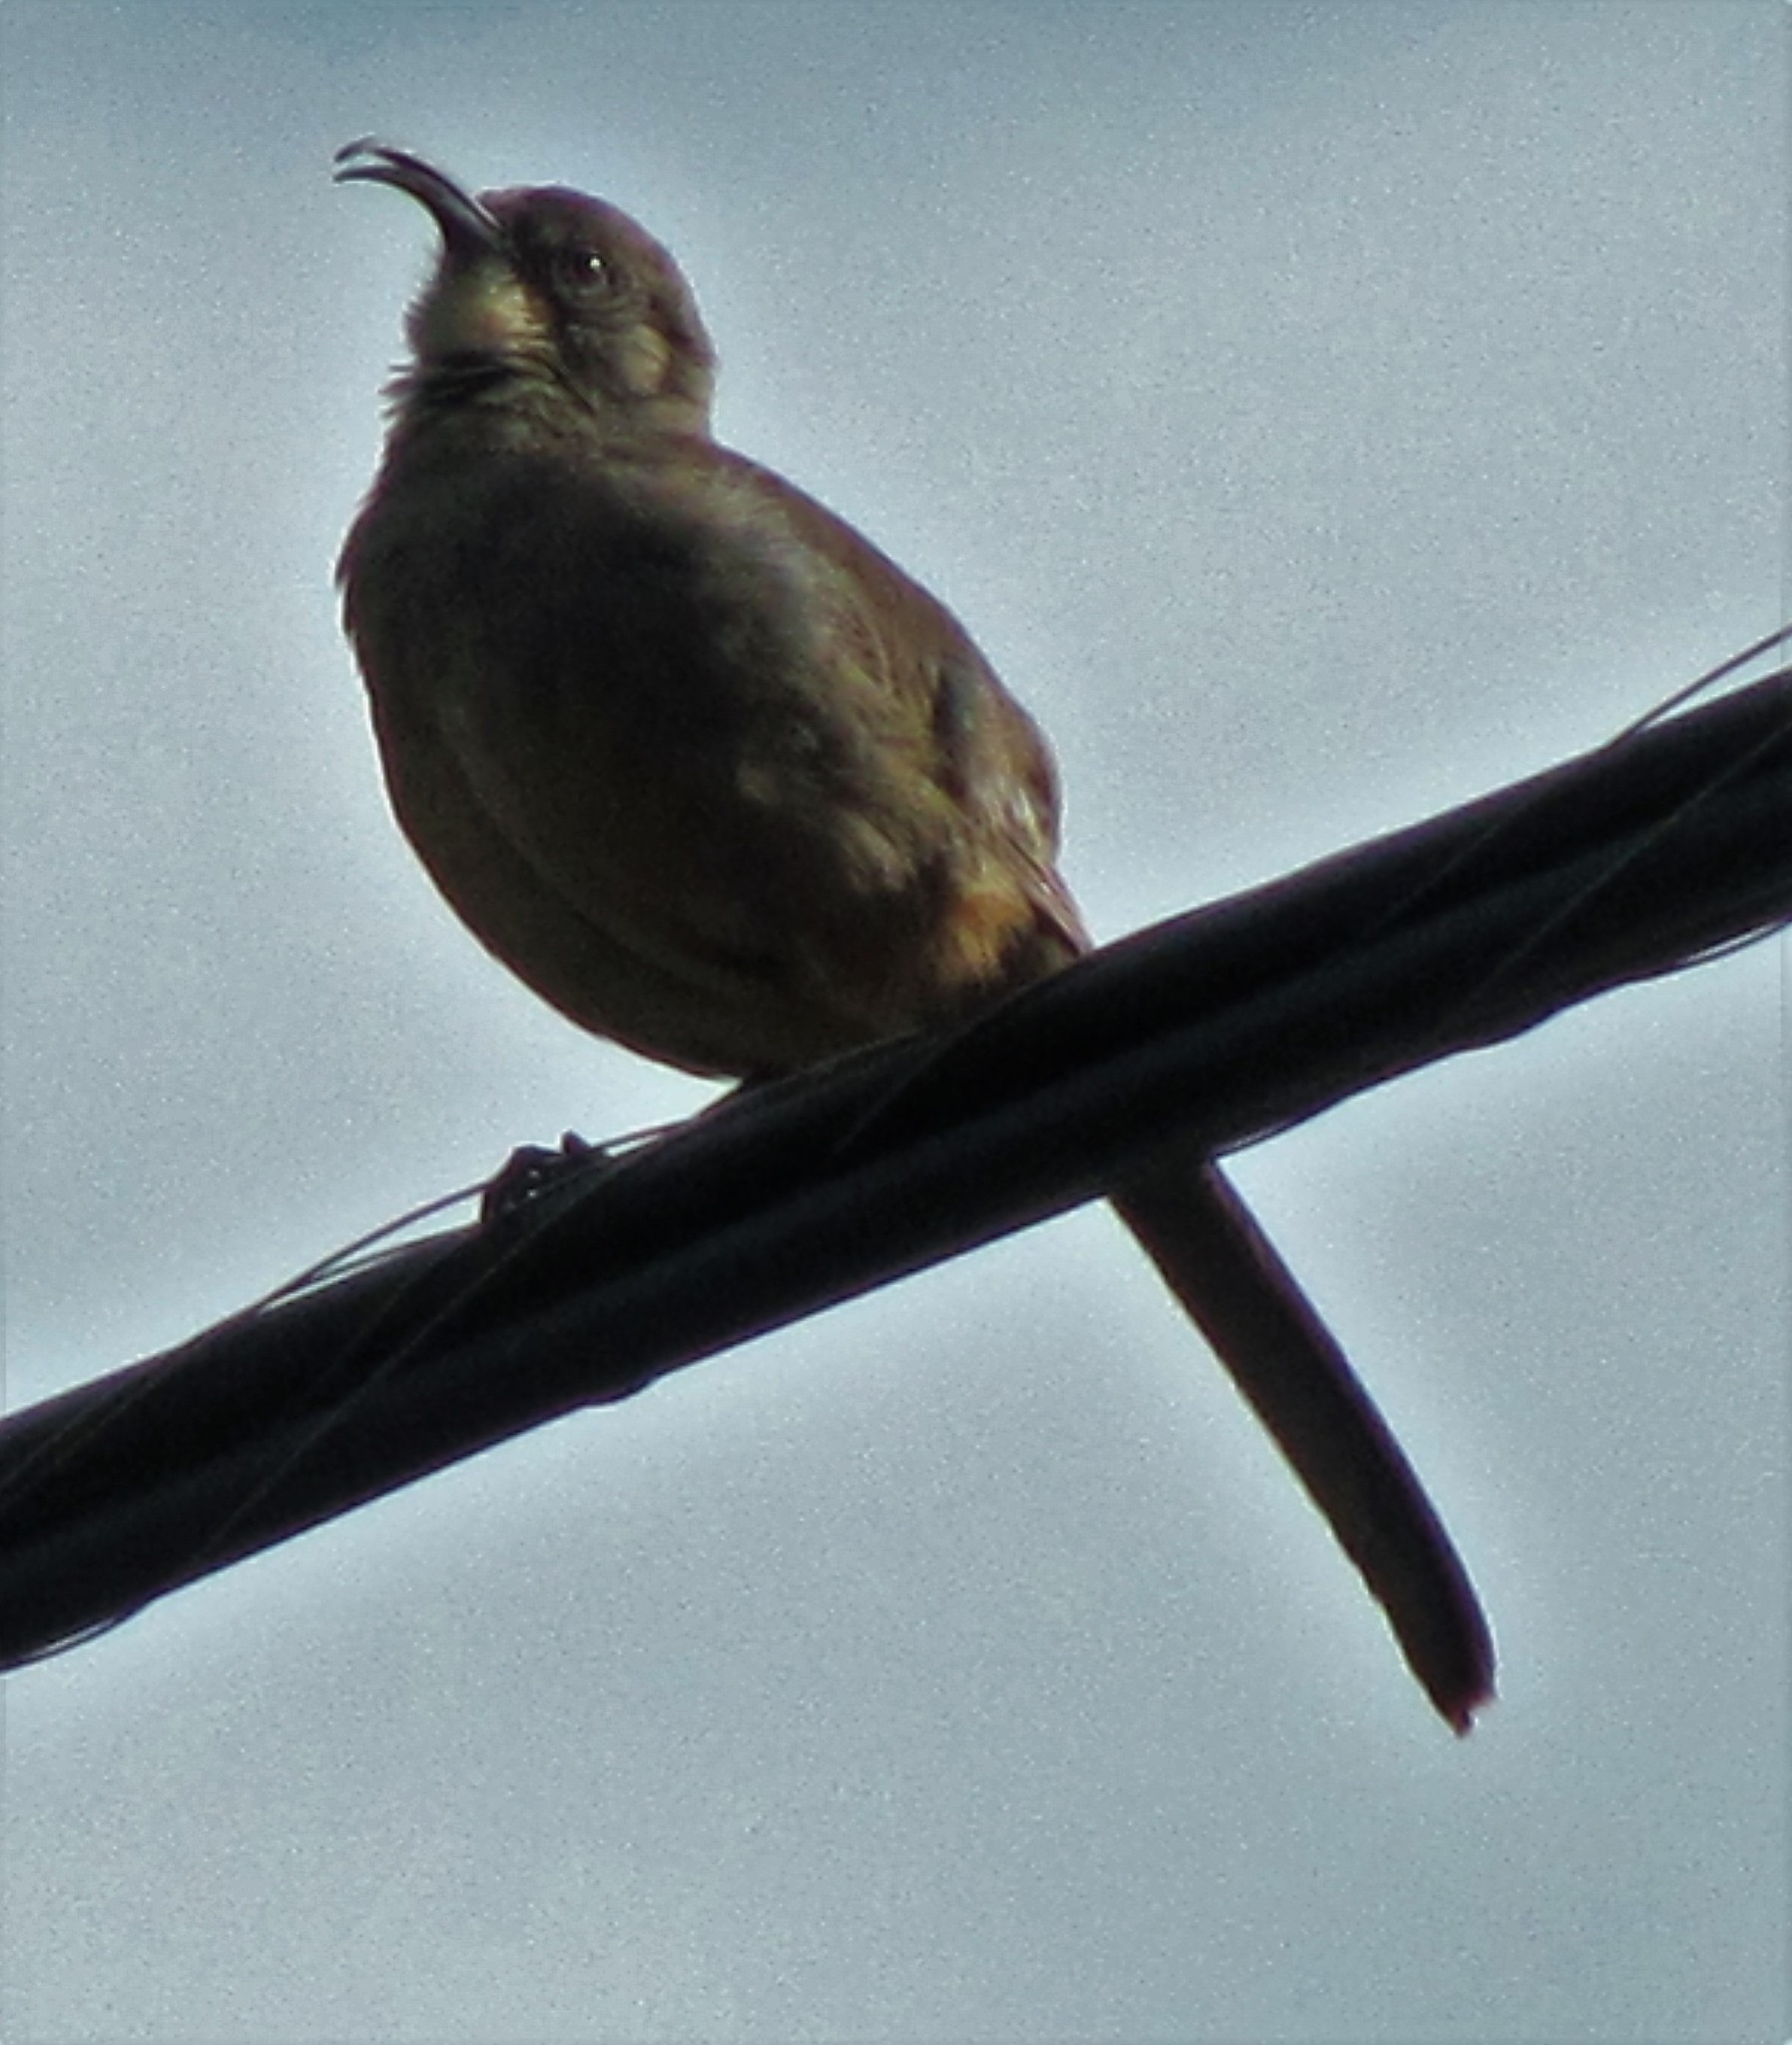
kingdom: Animalia
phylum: Chordata
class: Aves
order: Passeriformes
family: Mimidae
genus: Toxostoma
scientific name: Toxostoma redivivum
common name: California thrasher
